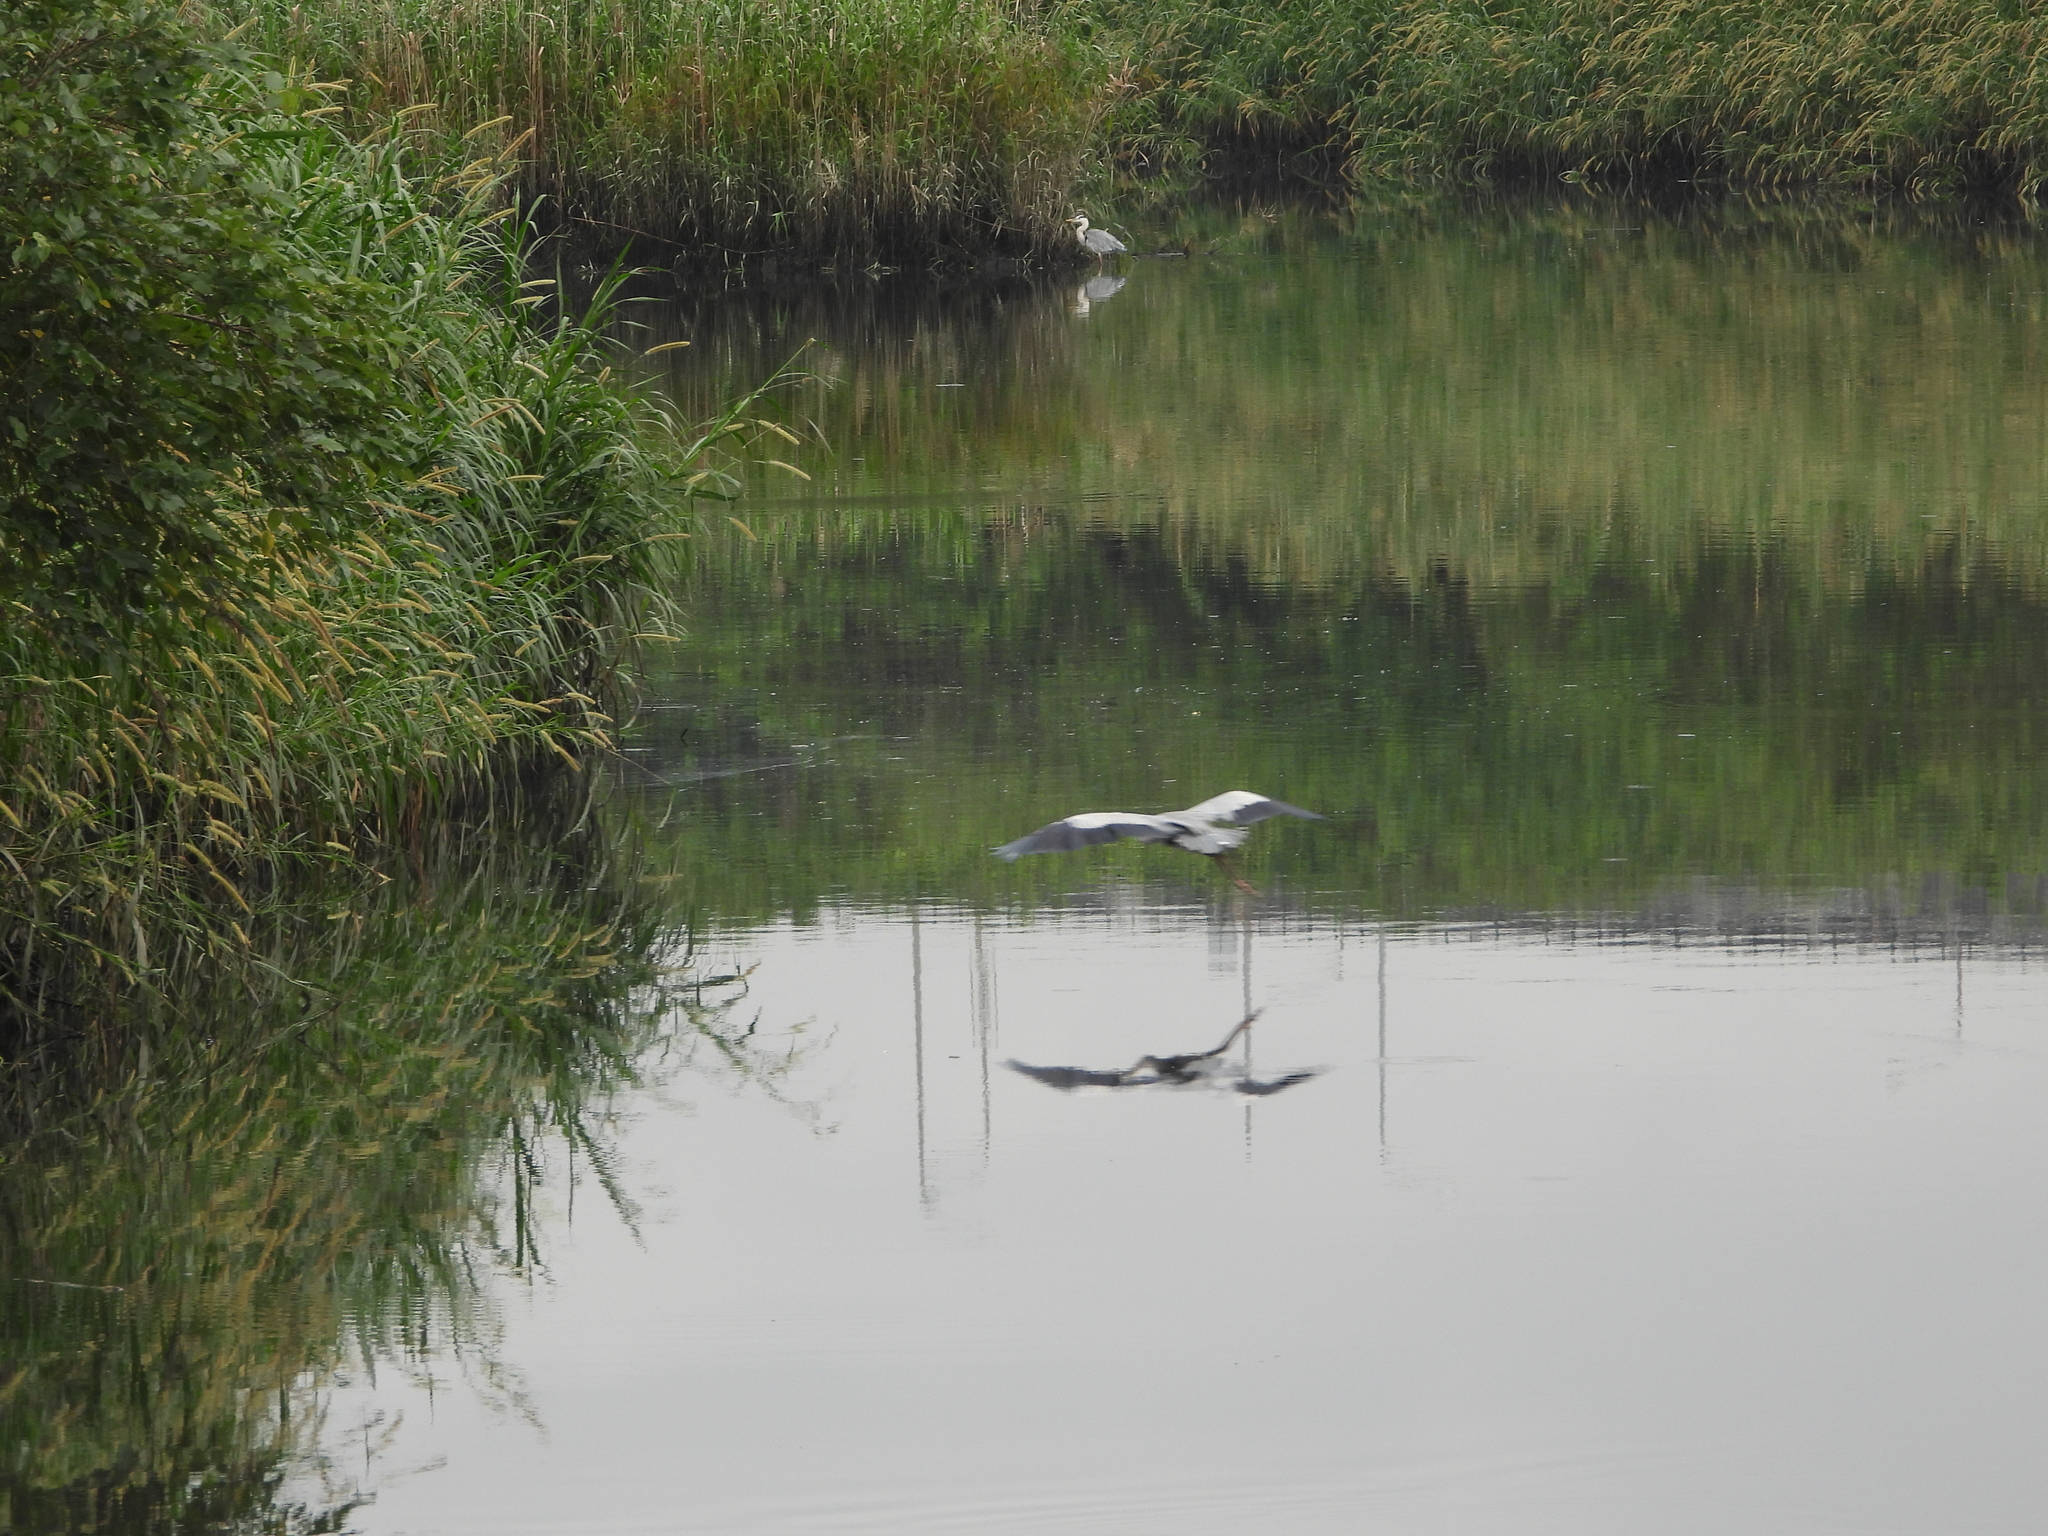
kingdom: Animalia
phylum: Chordata
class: Aves
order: Pelecaniformes
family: Ardeidae
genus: Ardea
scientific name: Ardea cinerea
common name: Grey heron
